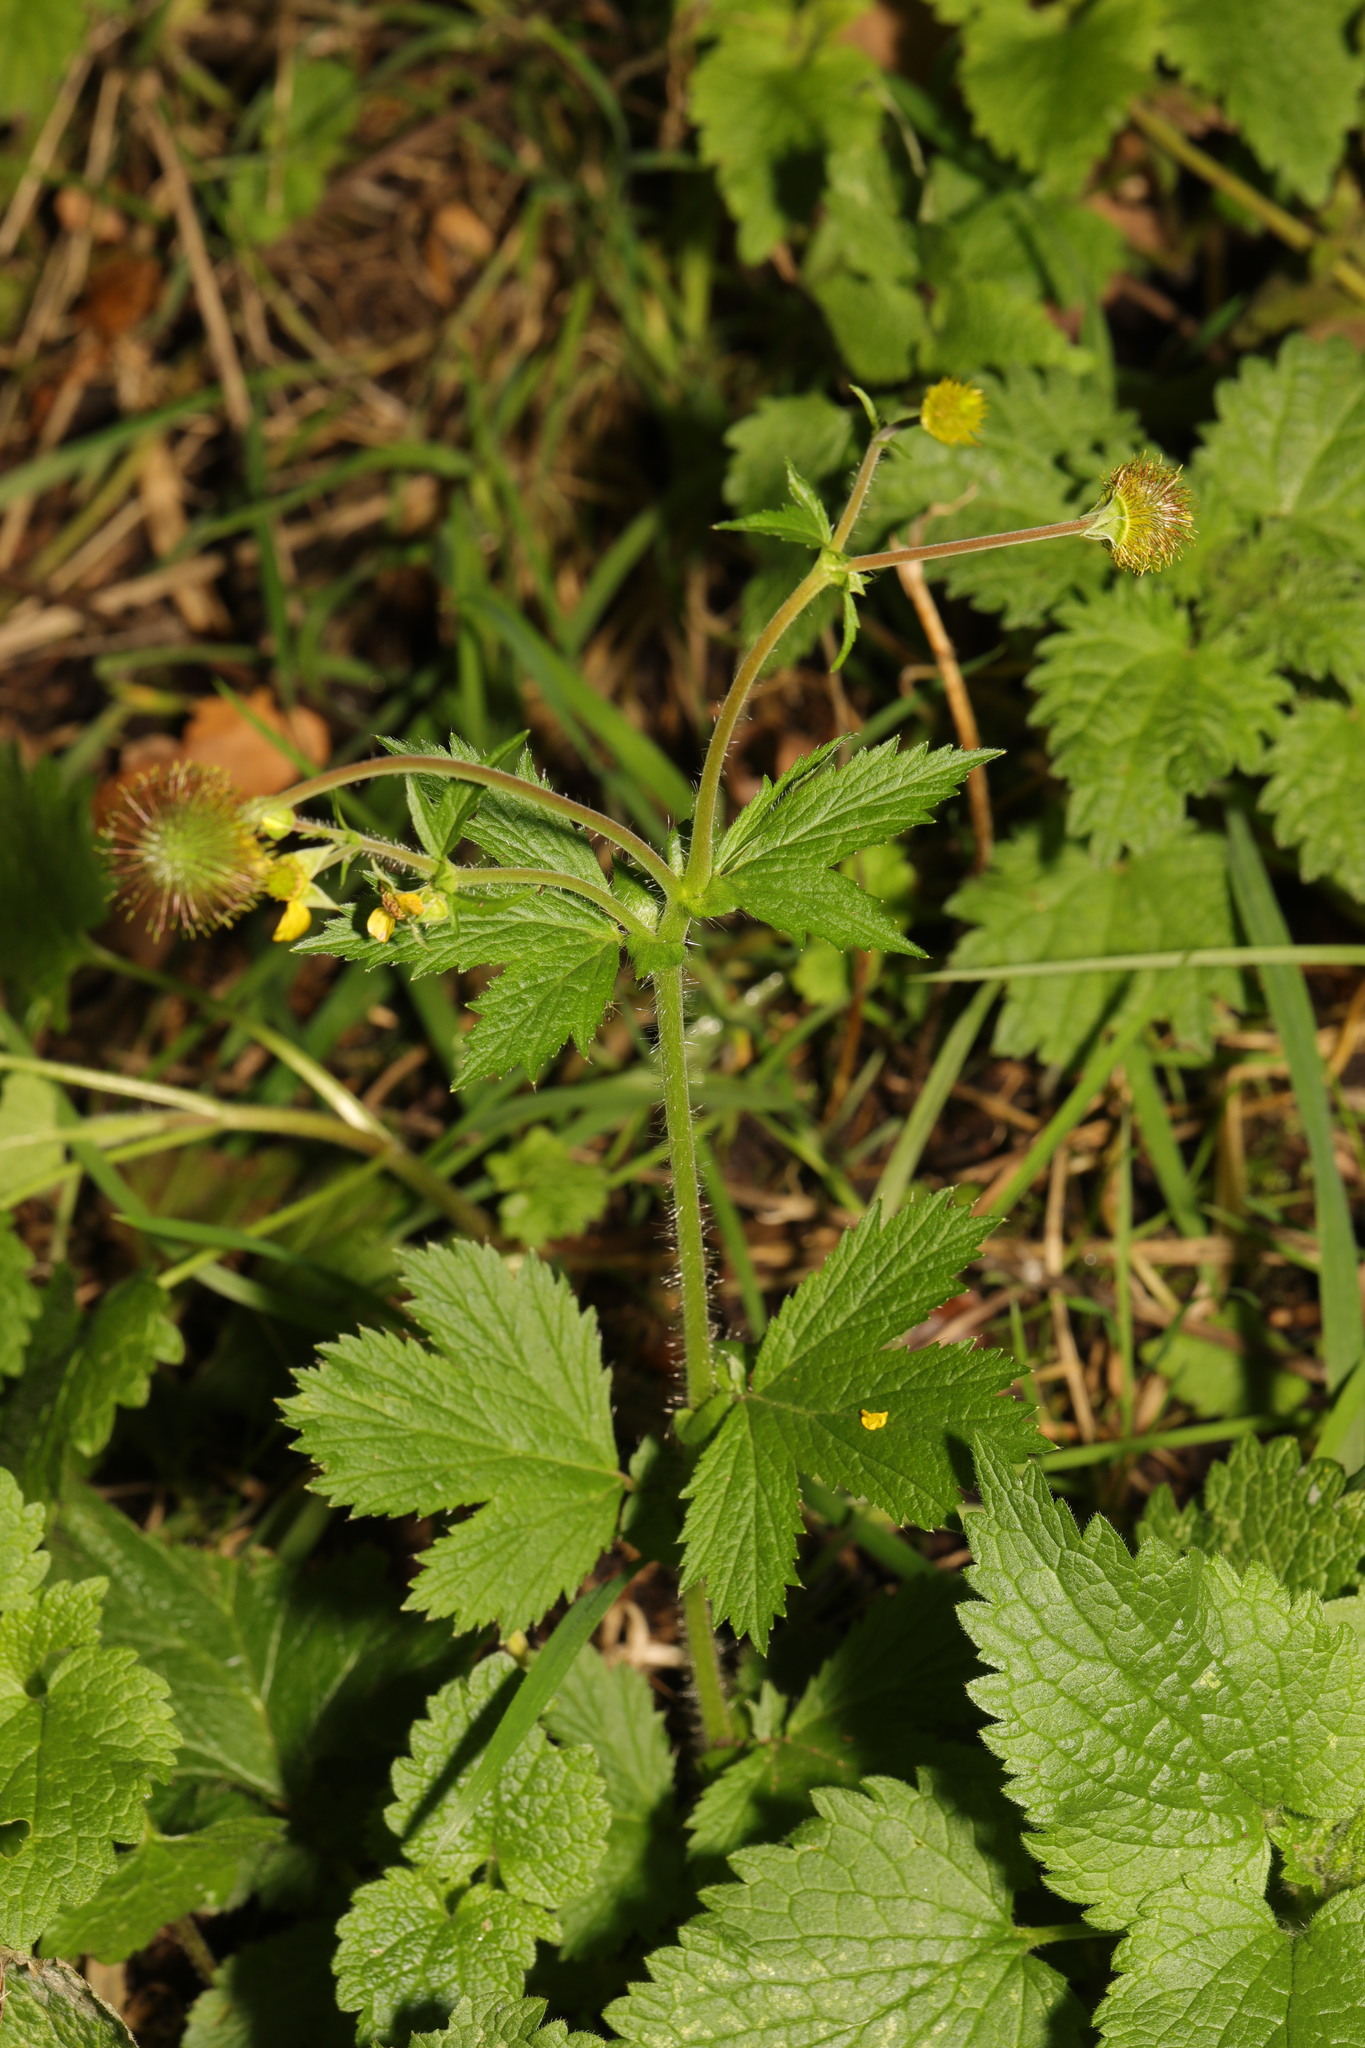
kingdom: Plantae
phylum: Tracheophyta
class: Magnoliopsida
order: Rosales
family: Rosaceae
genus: Geum
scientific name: Geum macrophyllum
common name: Large-leaved avens
